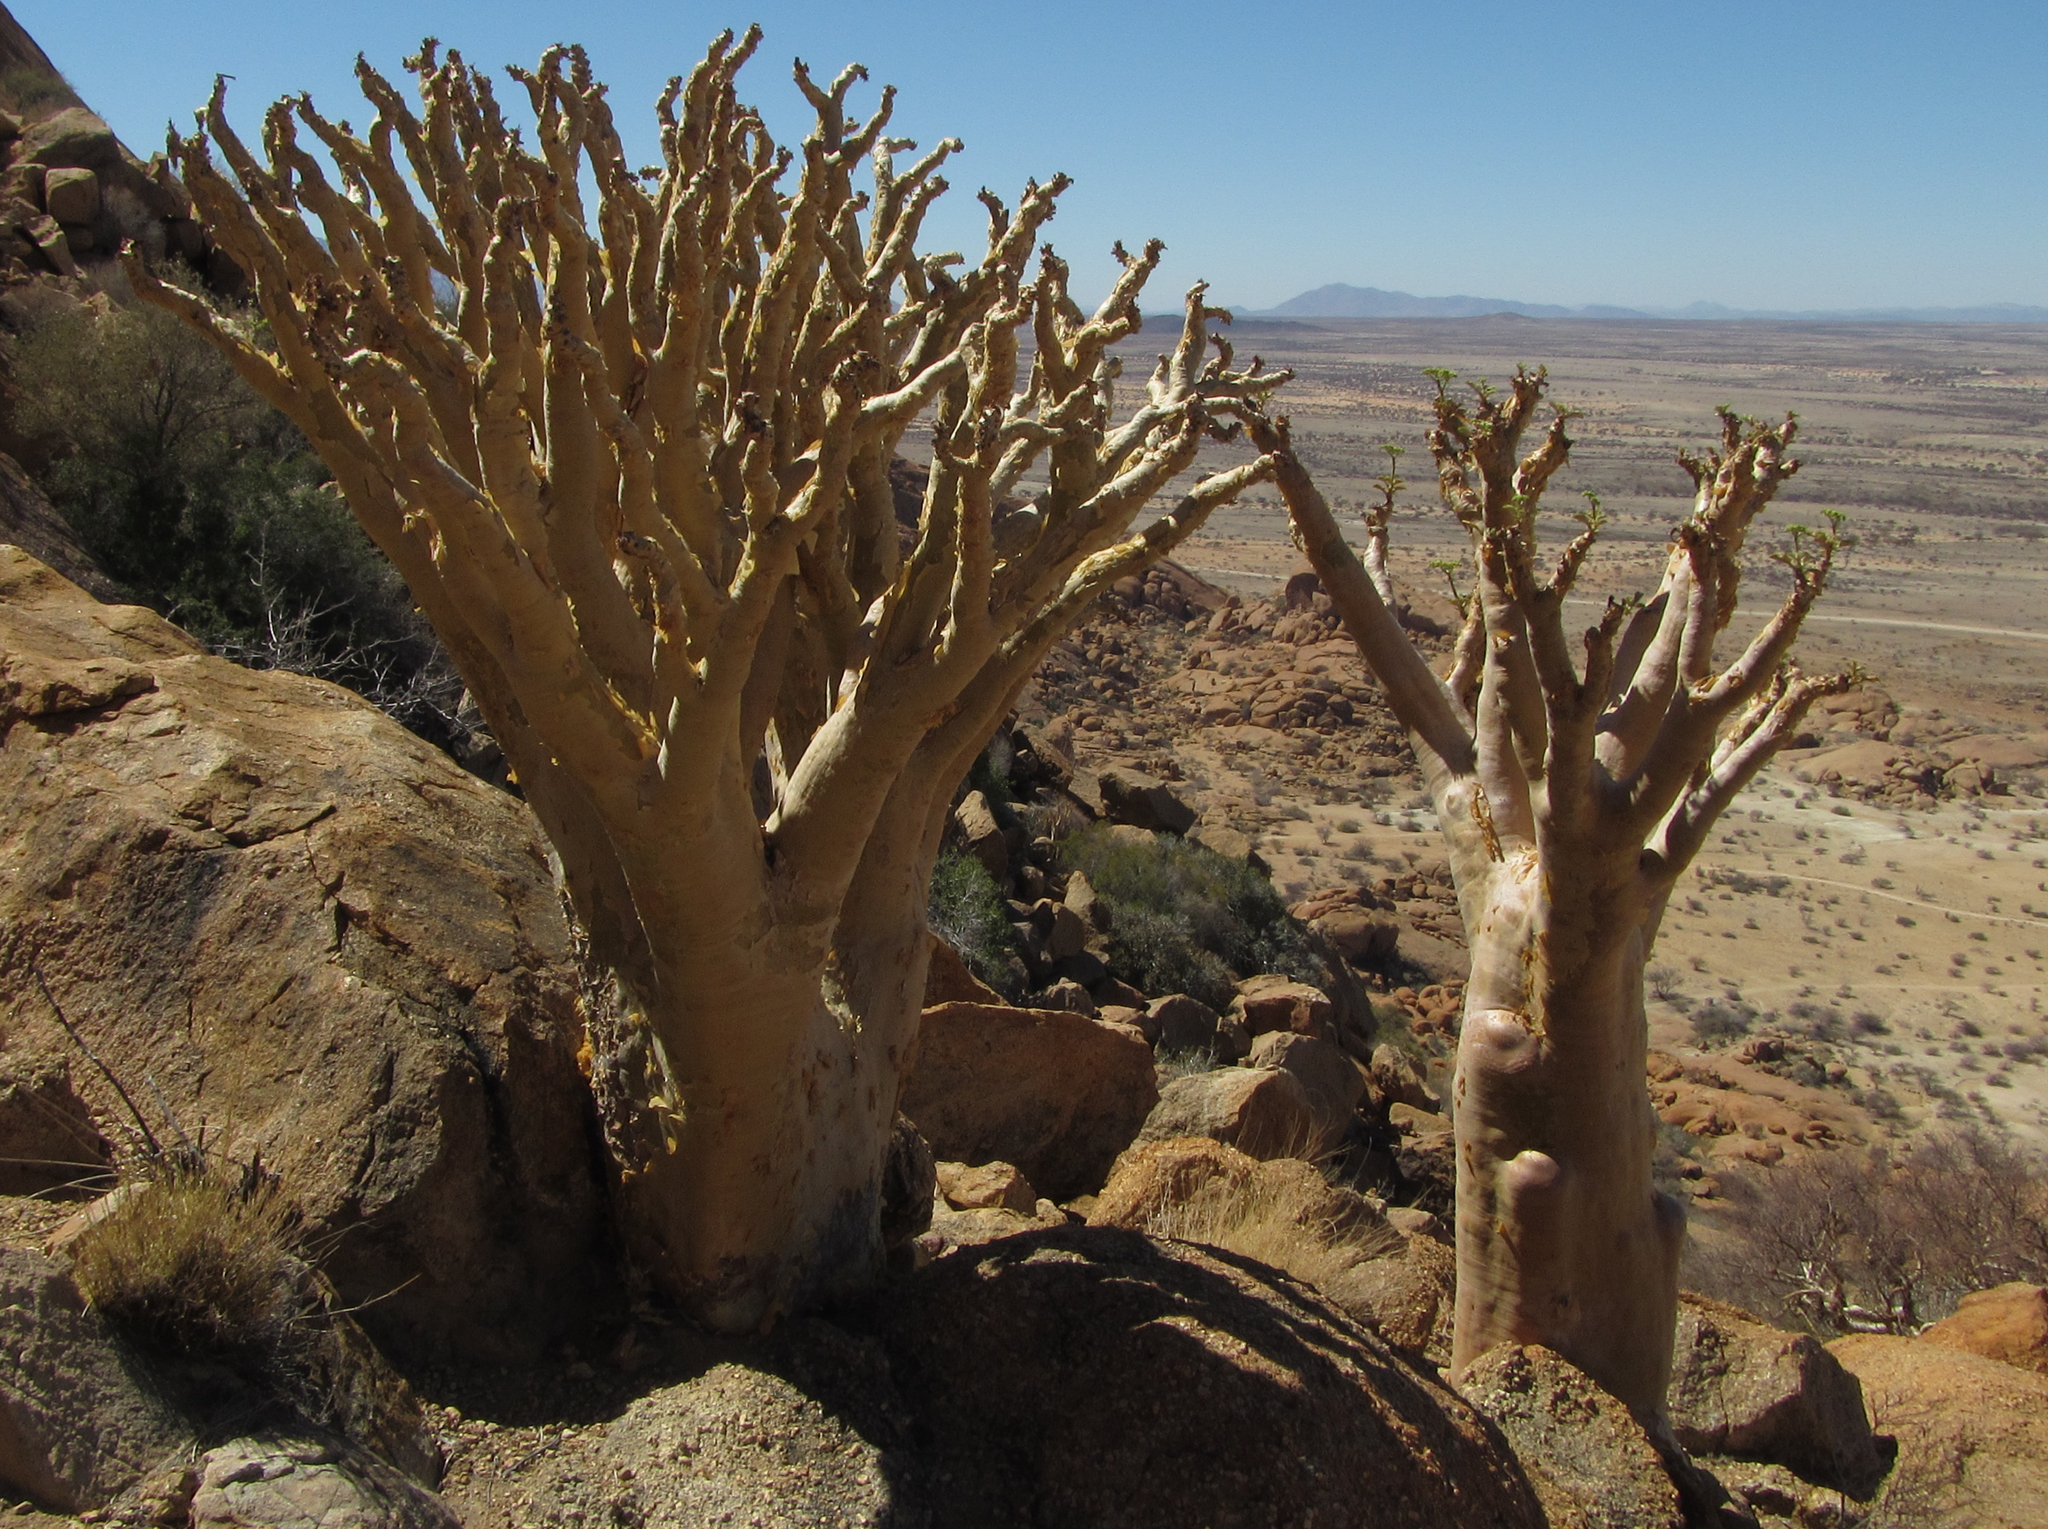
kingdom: Plantae
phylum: Tracheophyta
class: Magnoliopsida
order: Vitales
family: Vitaceae
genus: Cyphostemma
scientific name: Cyphostemma currorii
